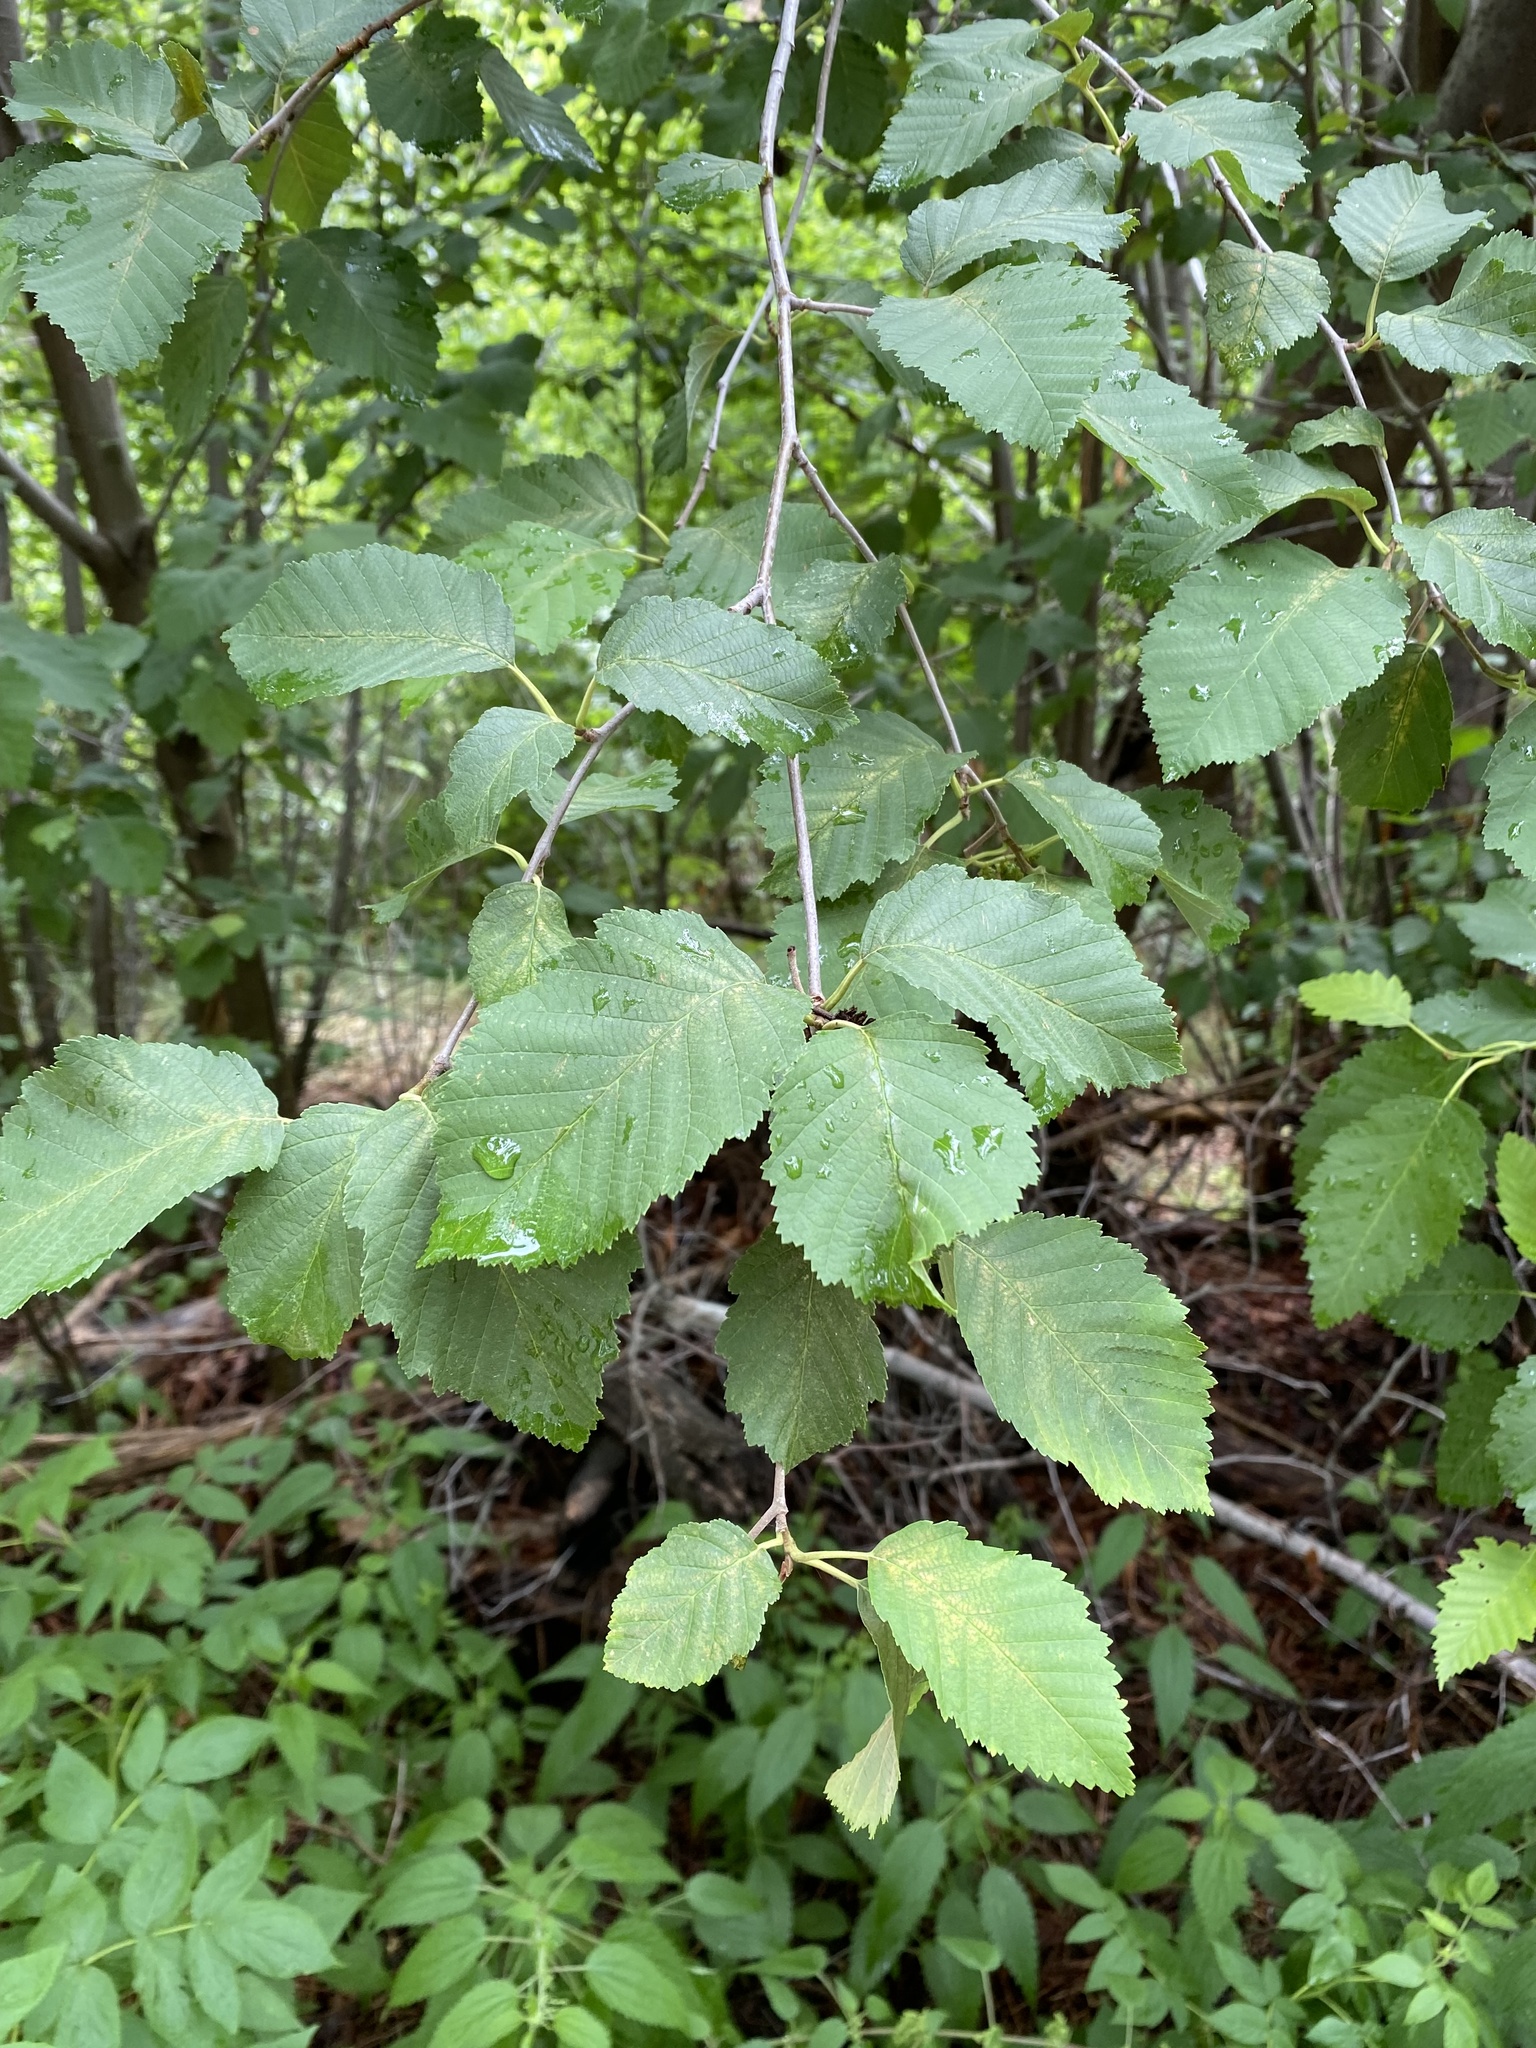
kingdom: Plantae
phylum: Tracheophyta
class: Magnoliopsida
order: Fagales
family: Betulaceae
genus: Alnus
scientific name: Alnus incana
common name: Grey alder
